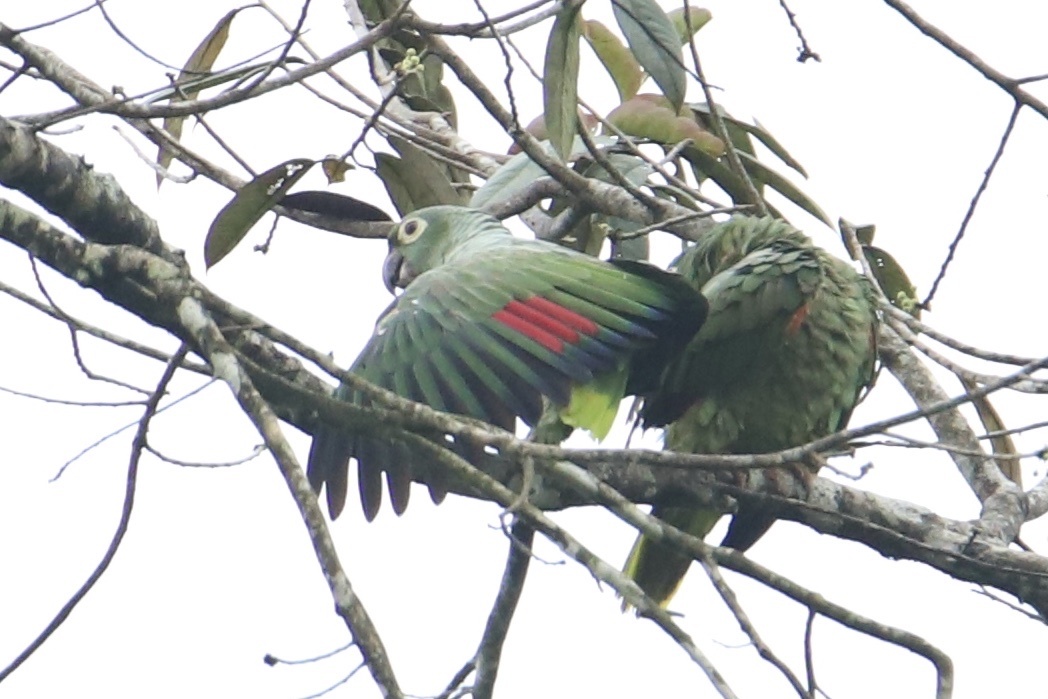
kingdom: Animalia
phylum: Chordata
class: Aves
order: Psittaciformes
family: Psittacidae
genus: Amazona
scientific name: Amazona farinosa
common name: Mealy parrot
